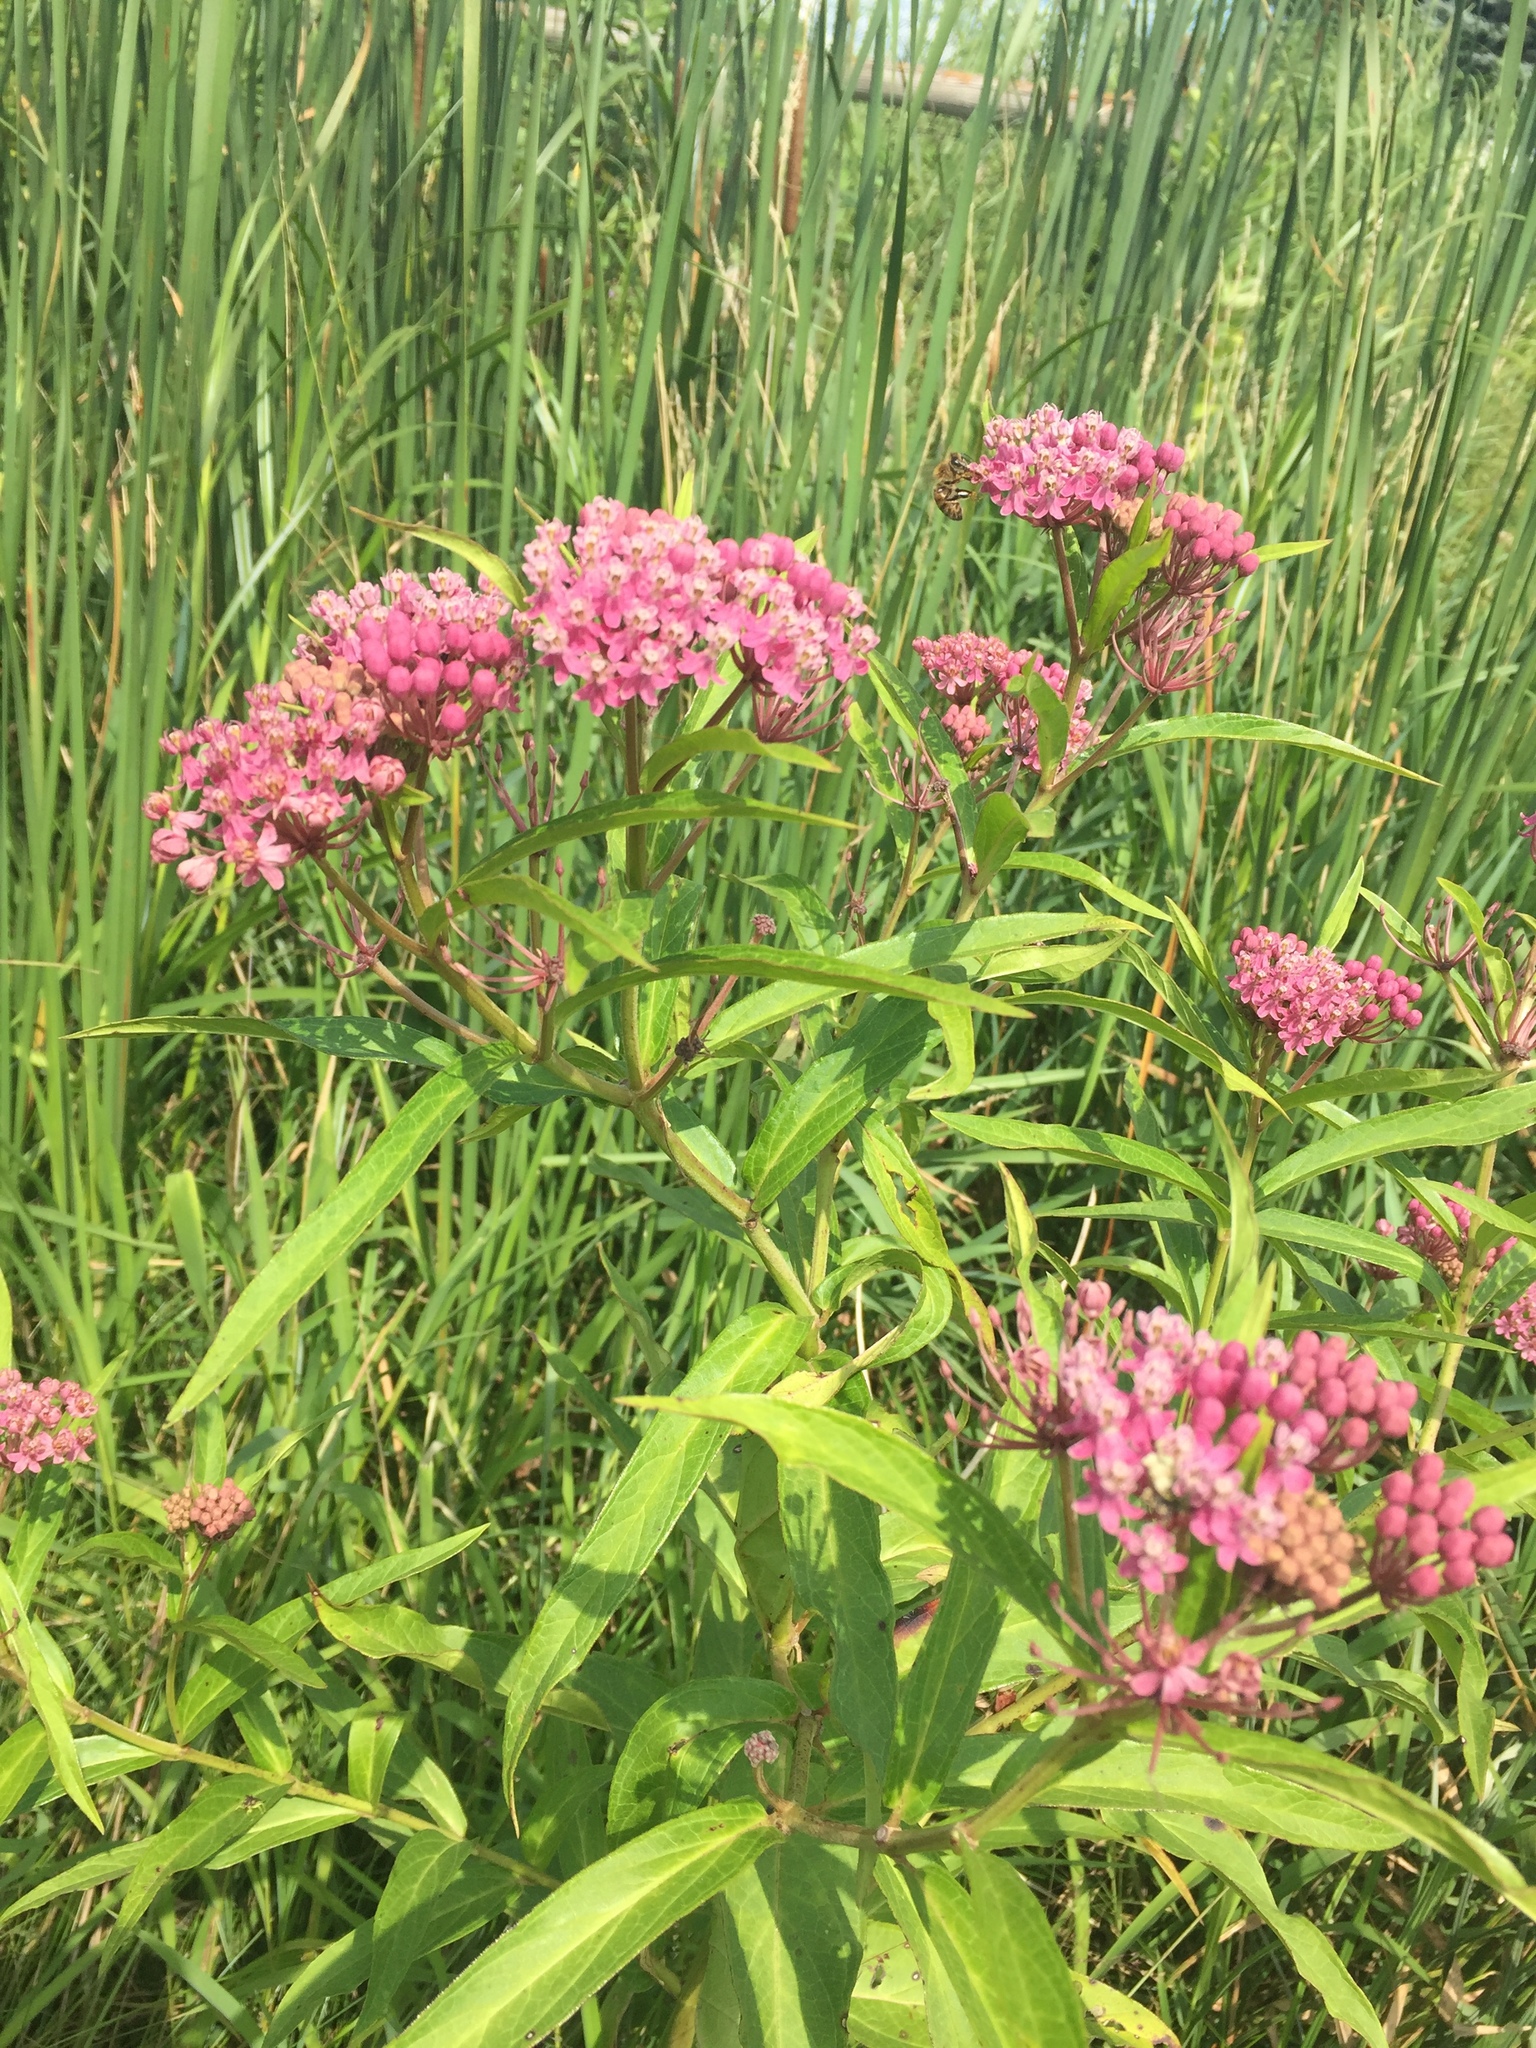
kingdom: Plantae
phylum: Tracheophyta
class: Magnoliopsida
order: Gentianales
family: Apocynaceae
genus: Asclepias
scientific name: Asclepias incarnata
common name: Swamp milkweed
